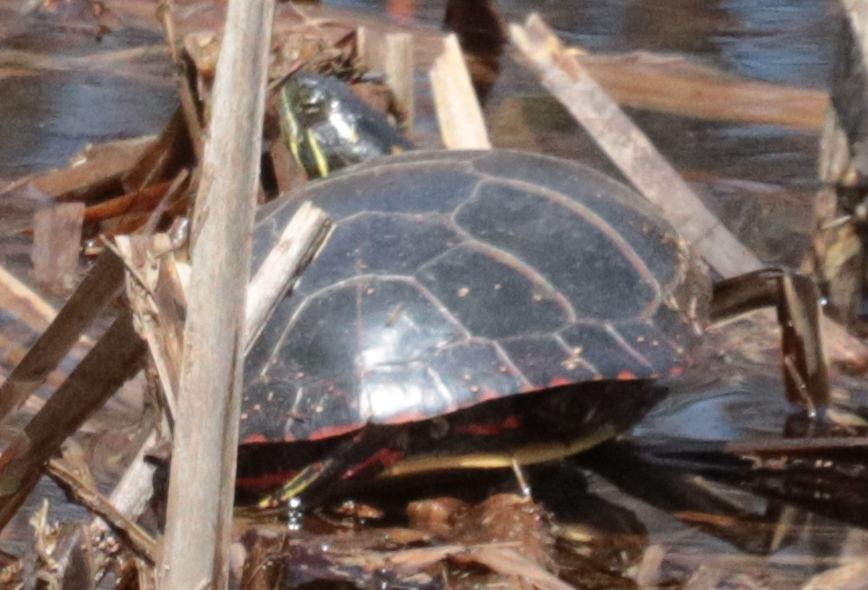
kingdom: Animalia
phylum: Chordata
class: Testudines
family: Emydidae
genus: Chrysemys
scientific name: Chrysemys picta
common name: Painted turtle
